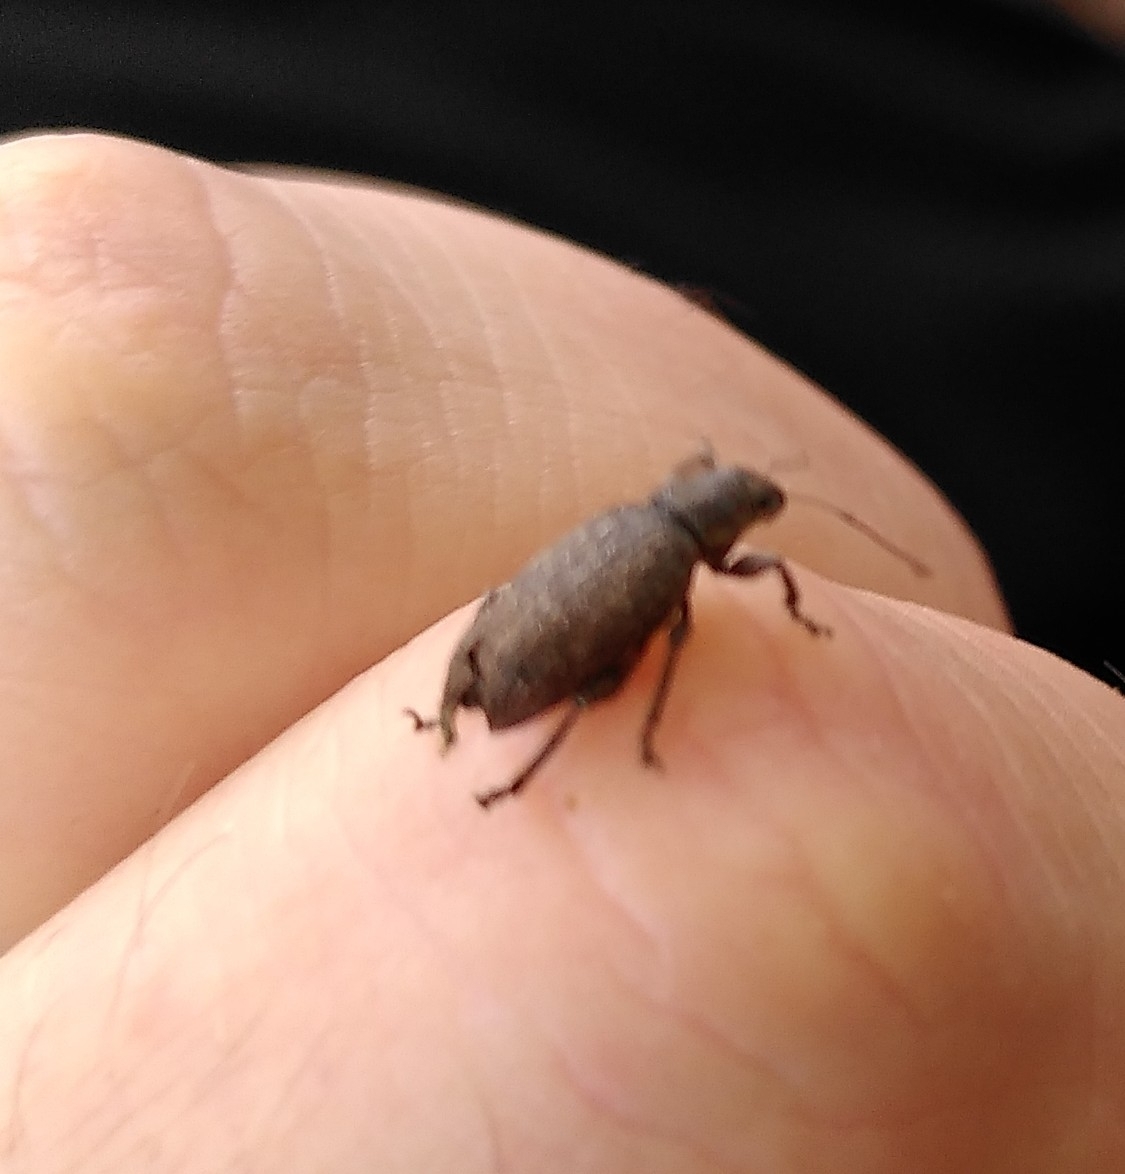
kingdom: Animalia
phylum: Arthropoda
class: Insecta
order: Coleoptera
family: Curculionidae
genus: Brachyderes
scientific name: Brachyderes incanus
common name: Weevil
